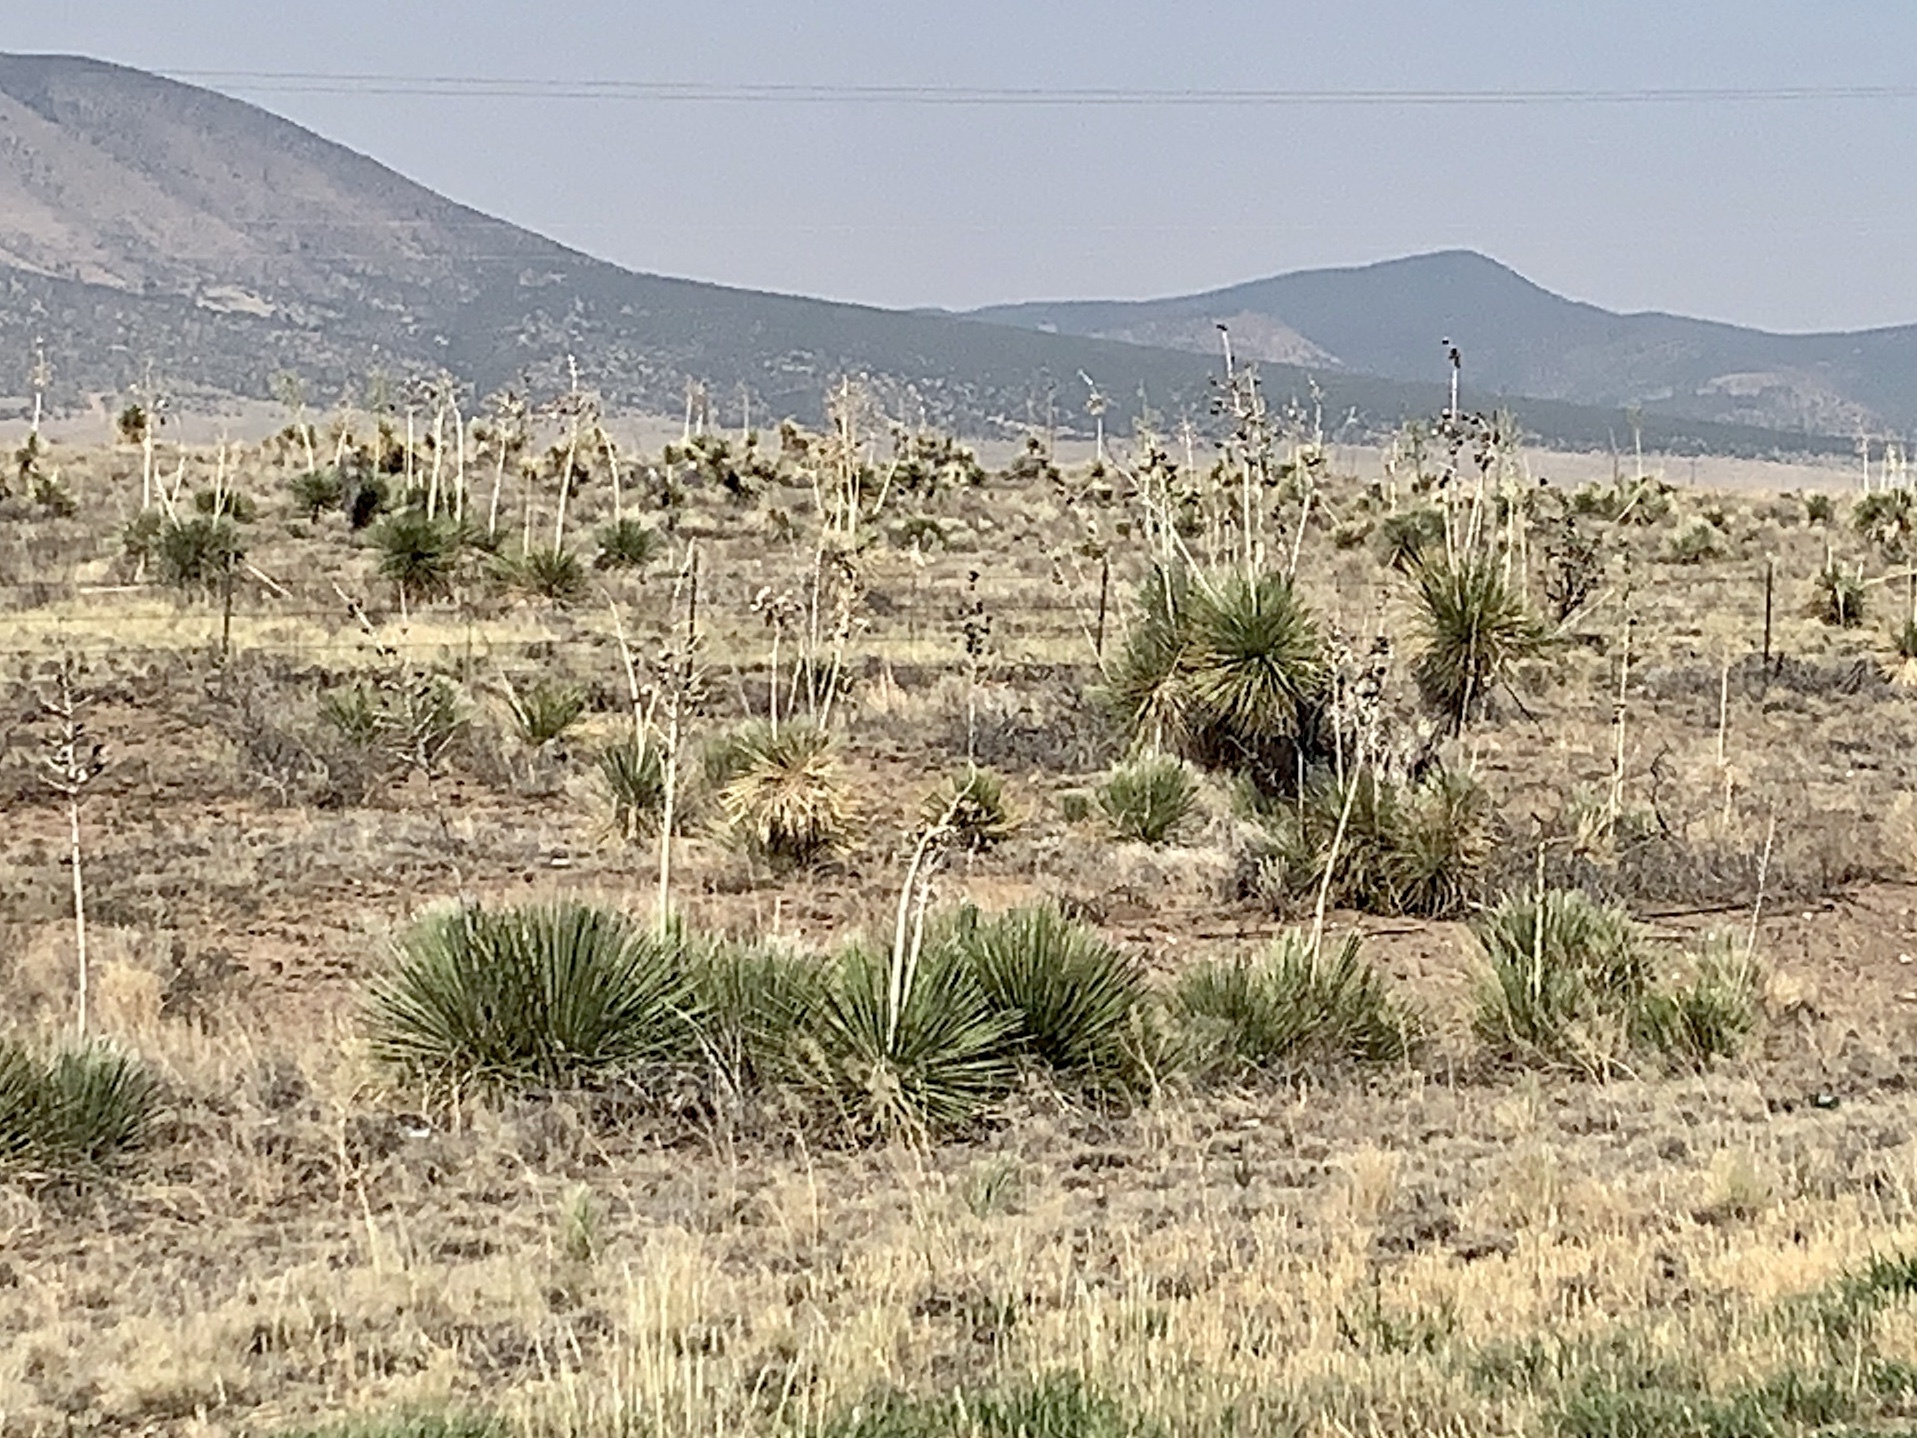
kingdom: Plantae
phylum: Tracheophyta
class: Liliopsida
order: Asparagales
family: Asparagaceae
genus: Yucca
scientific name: Yucca elata
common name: Palmella
